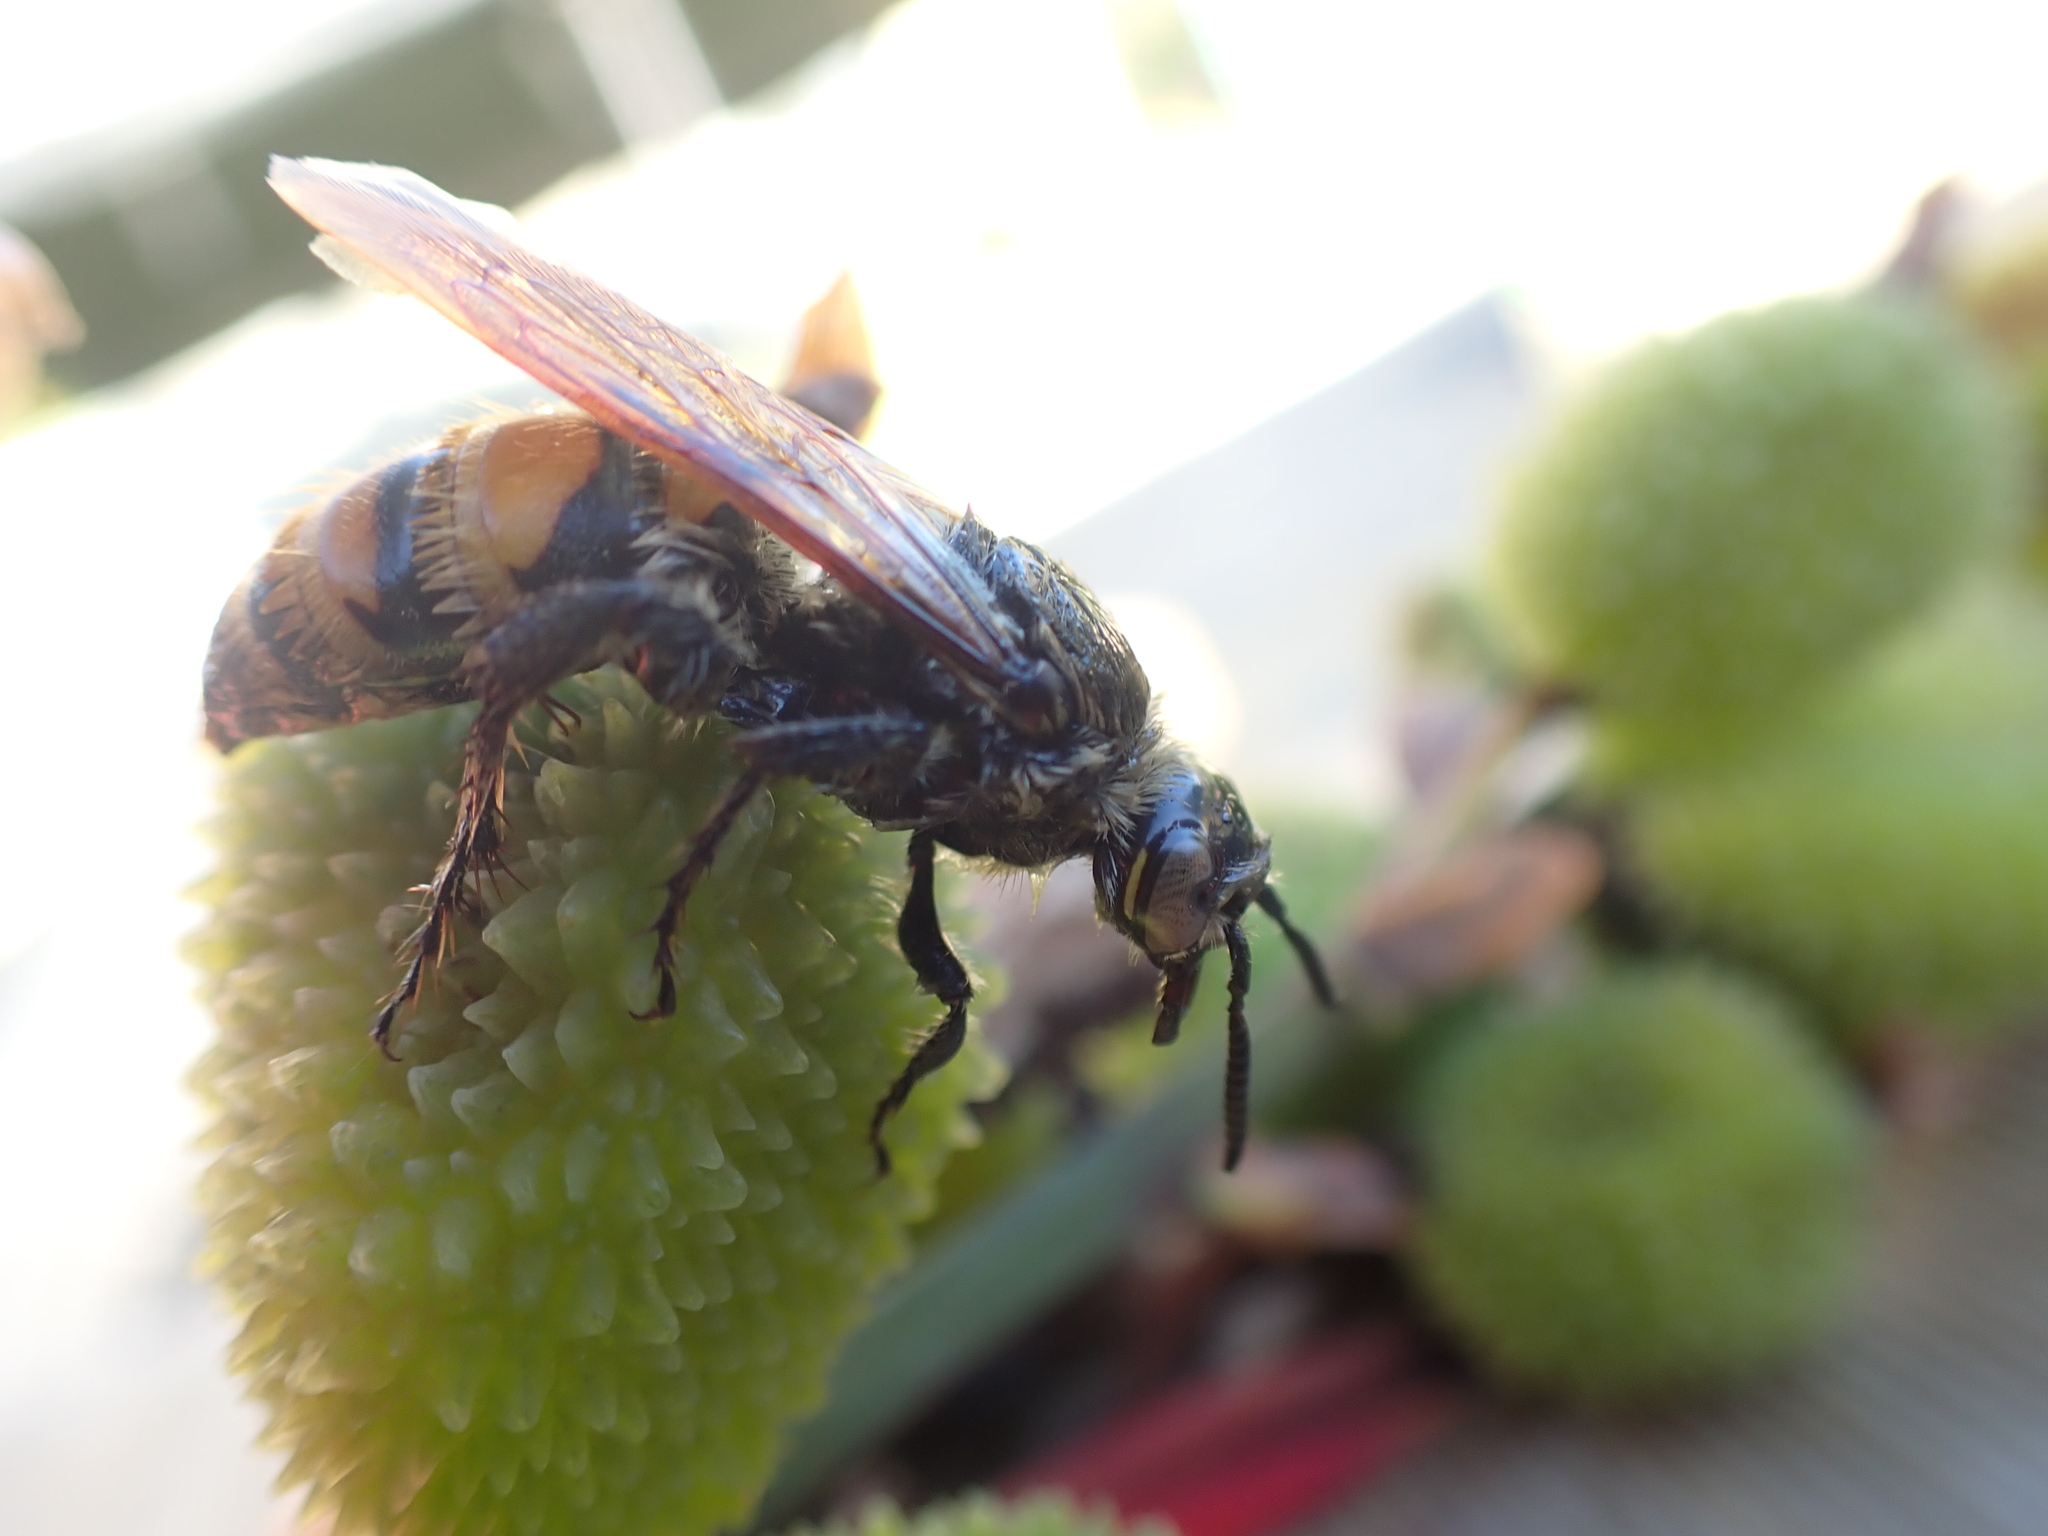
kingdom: Animalia
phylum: Arthropoda
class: Insecta
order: Hymenoptera
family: Scoliidae
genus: Radumeris
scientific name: Radumeris tasmaniensis
